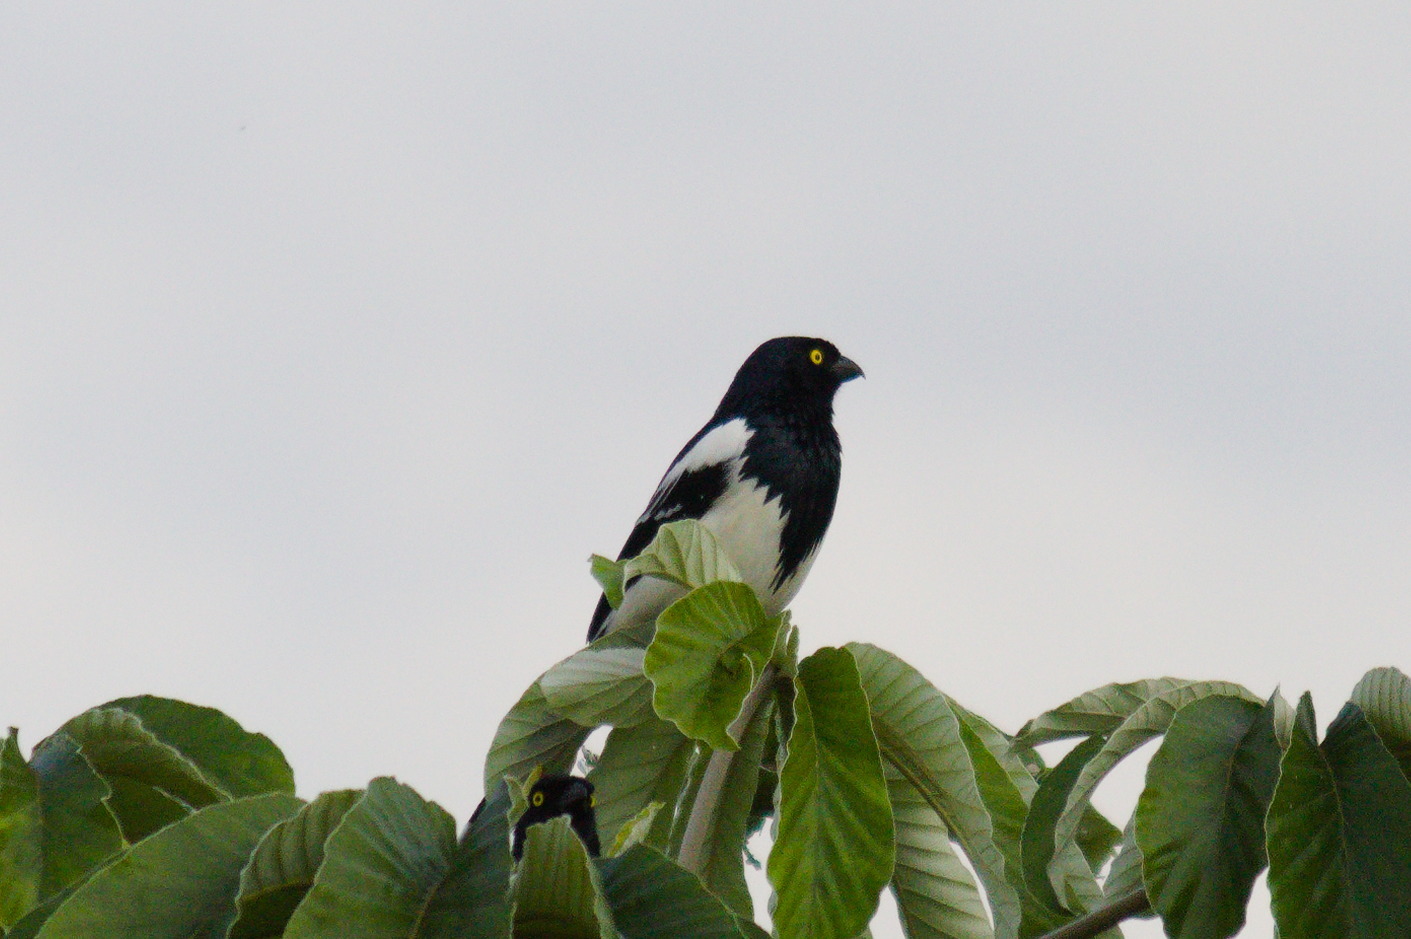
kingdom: Animalia
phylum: Chordata
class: Aves
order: Passeriformes
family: Thraupidae
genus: Cissopis
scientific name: Cissopis leverianus
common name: Magpie tanager
